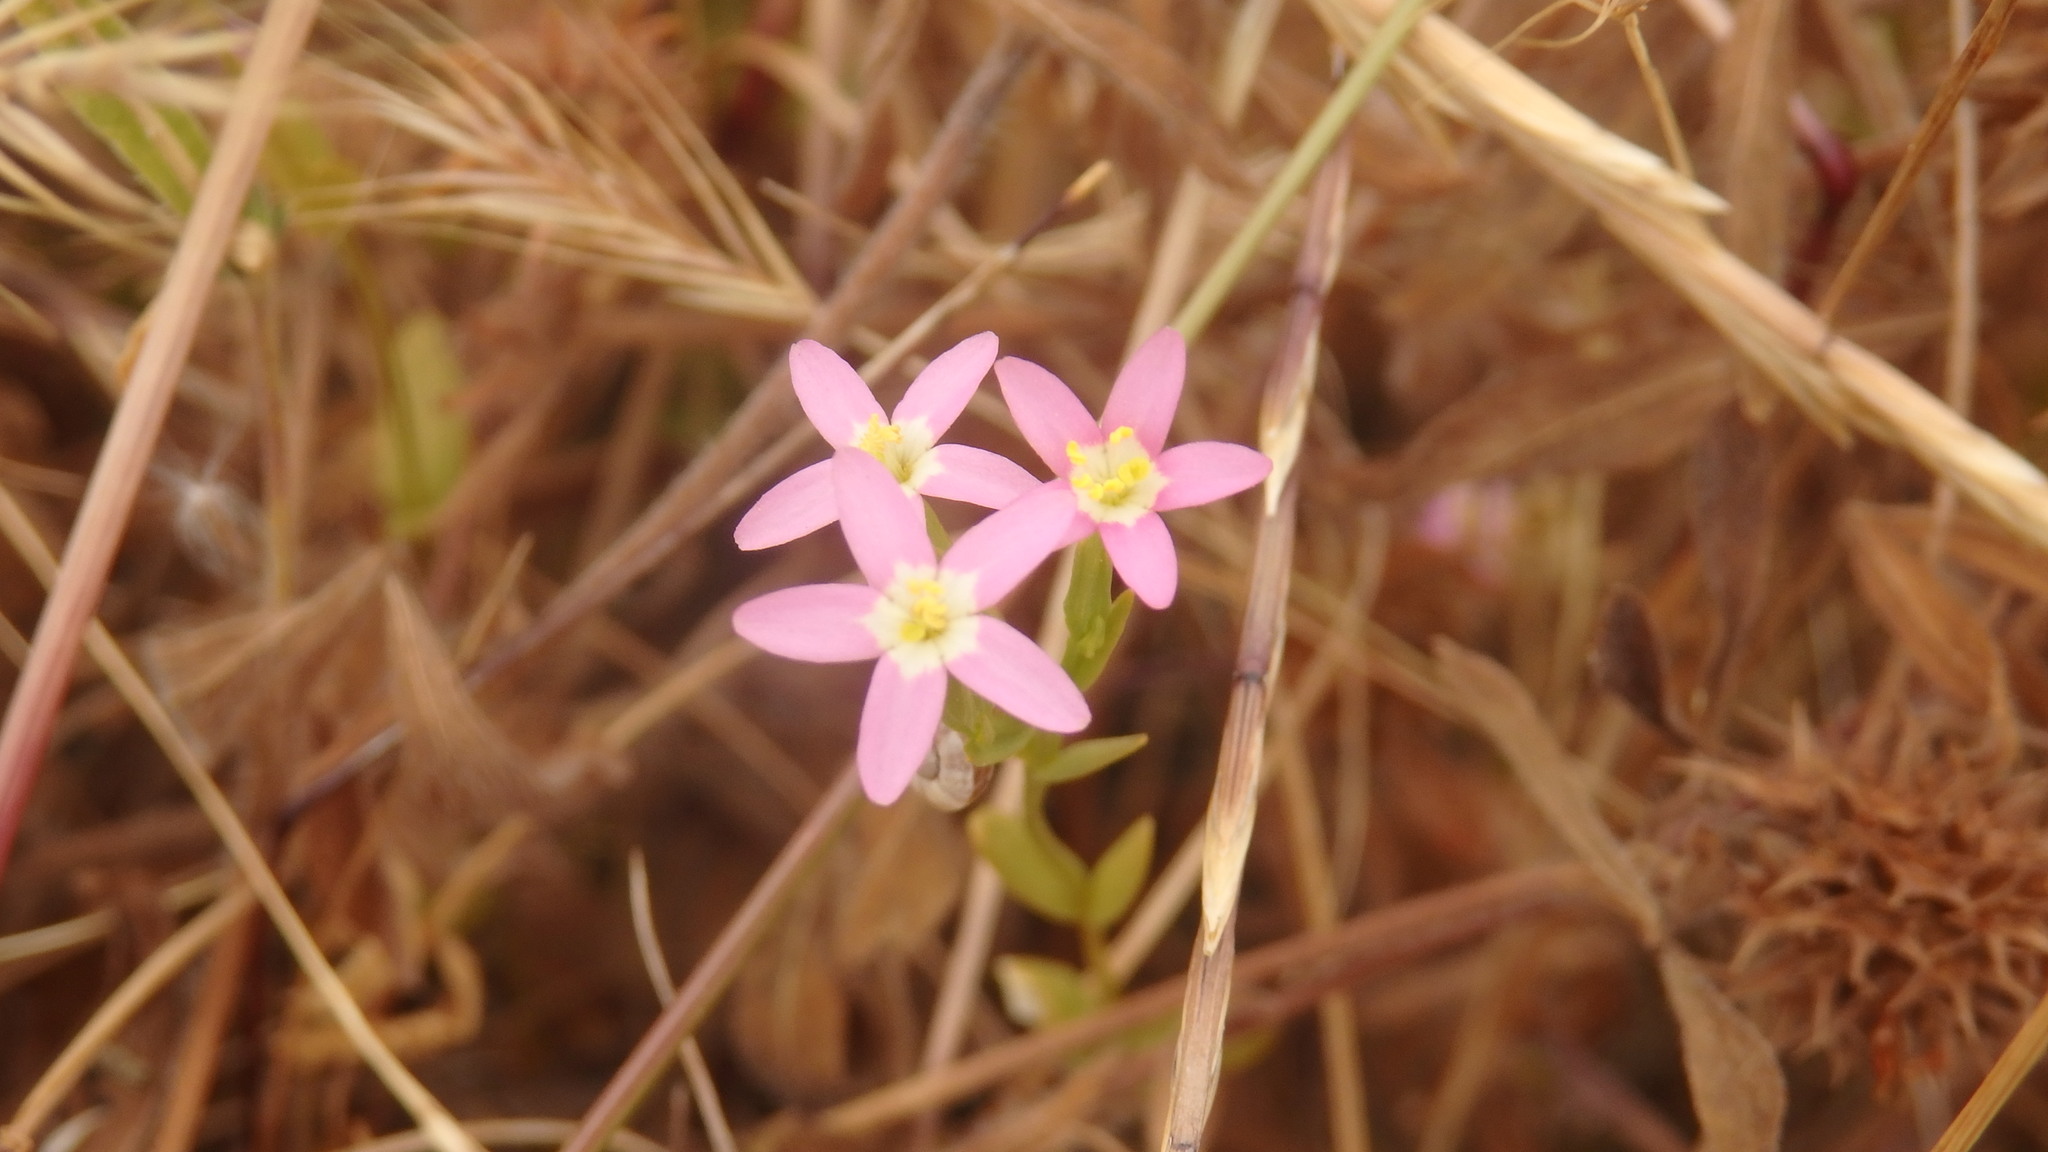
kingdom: Plantae
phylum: Tracheophyta
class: Magnoliopsida
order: Gentianales
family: Gentianaceae
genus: Centaurium
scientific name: Centaurium tenuiflorum
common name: Slender centaury
